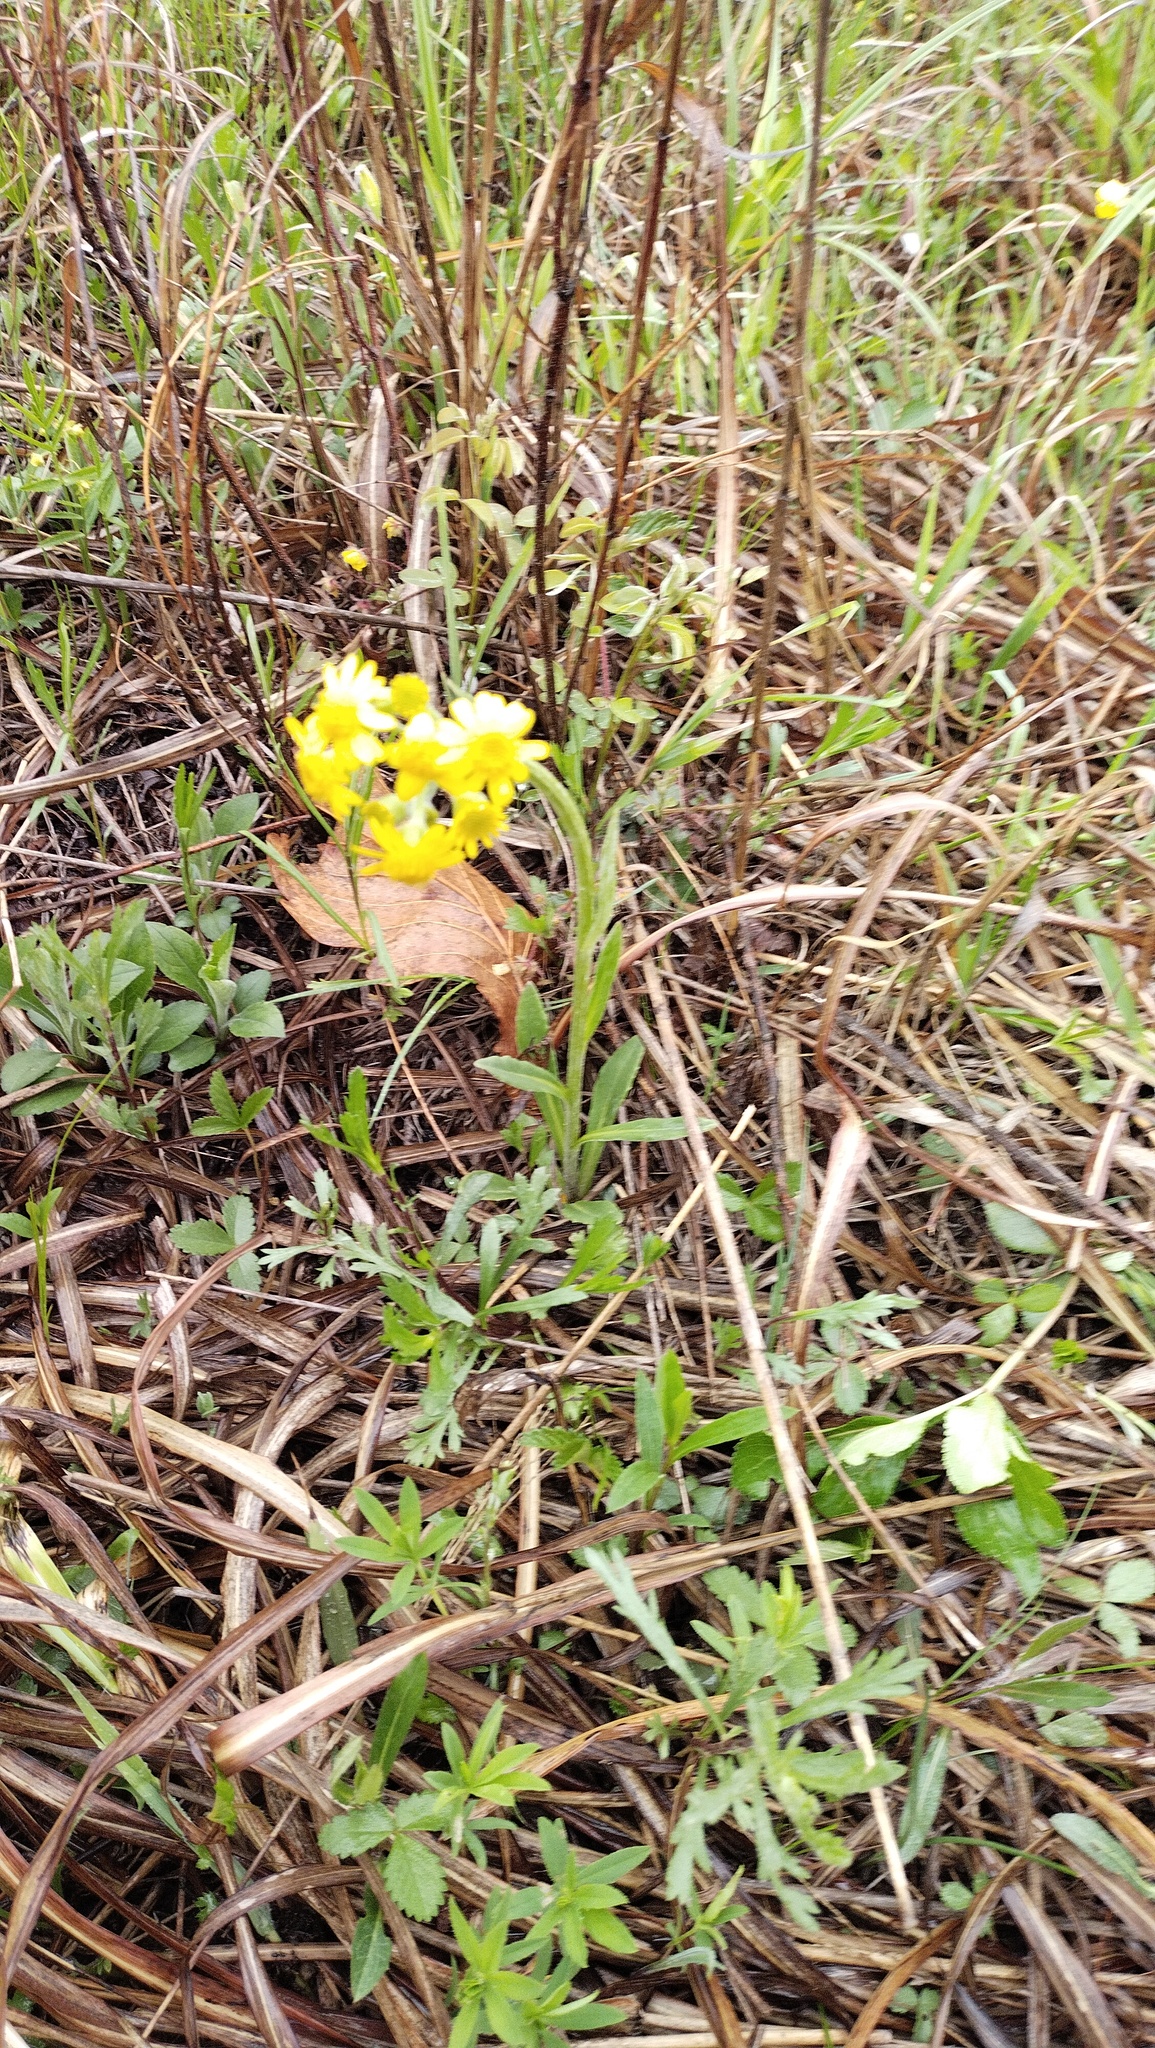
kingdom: Plantae
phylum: Tracheophyta
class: Magnoliopsida
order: Asterales
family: Asteraceae
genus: Tephroseris
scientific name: Tephroseris kirilowii
